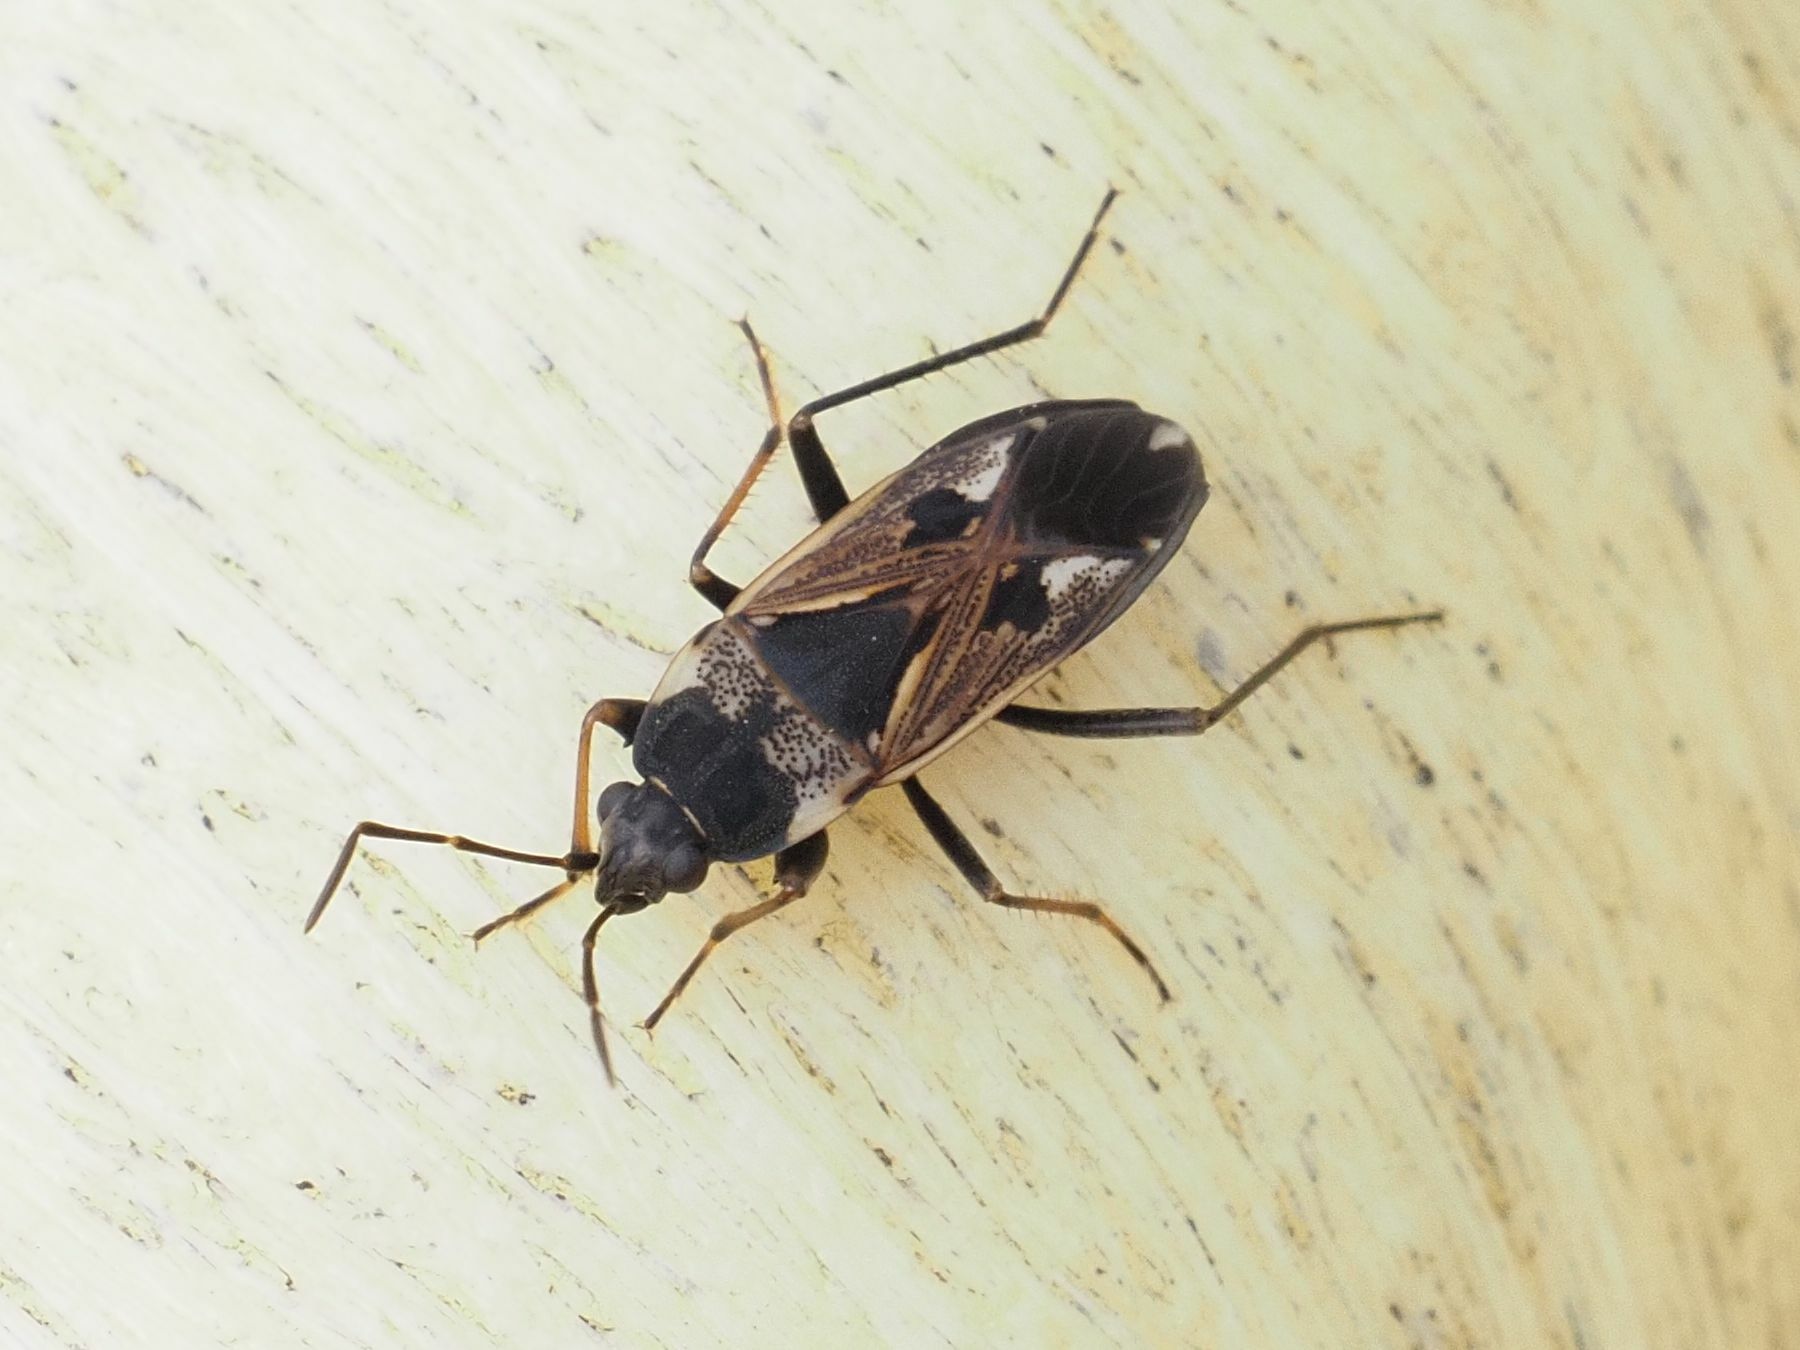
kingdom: Animalia
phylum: Arthropoda
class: Insecta
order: Hemiptera
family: Rhyparochromidae
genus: Rhyparochromus
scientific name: Rhyparochromus vulgaris
